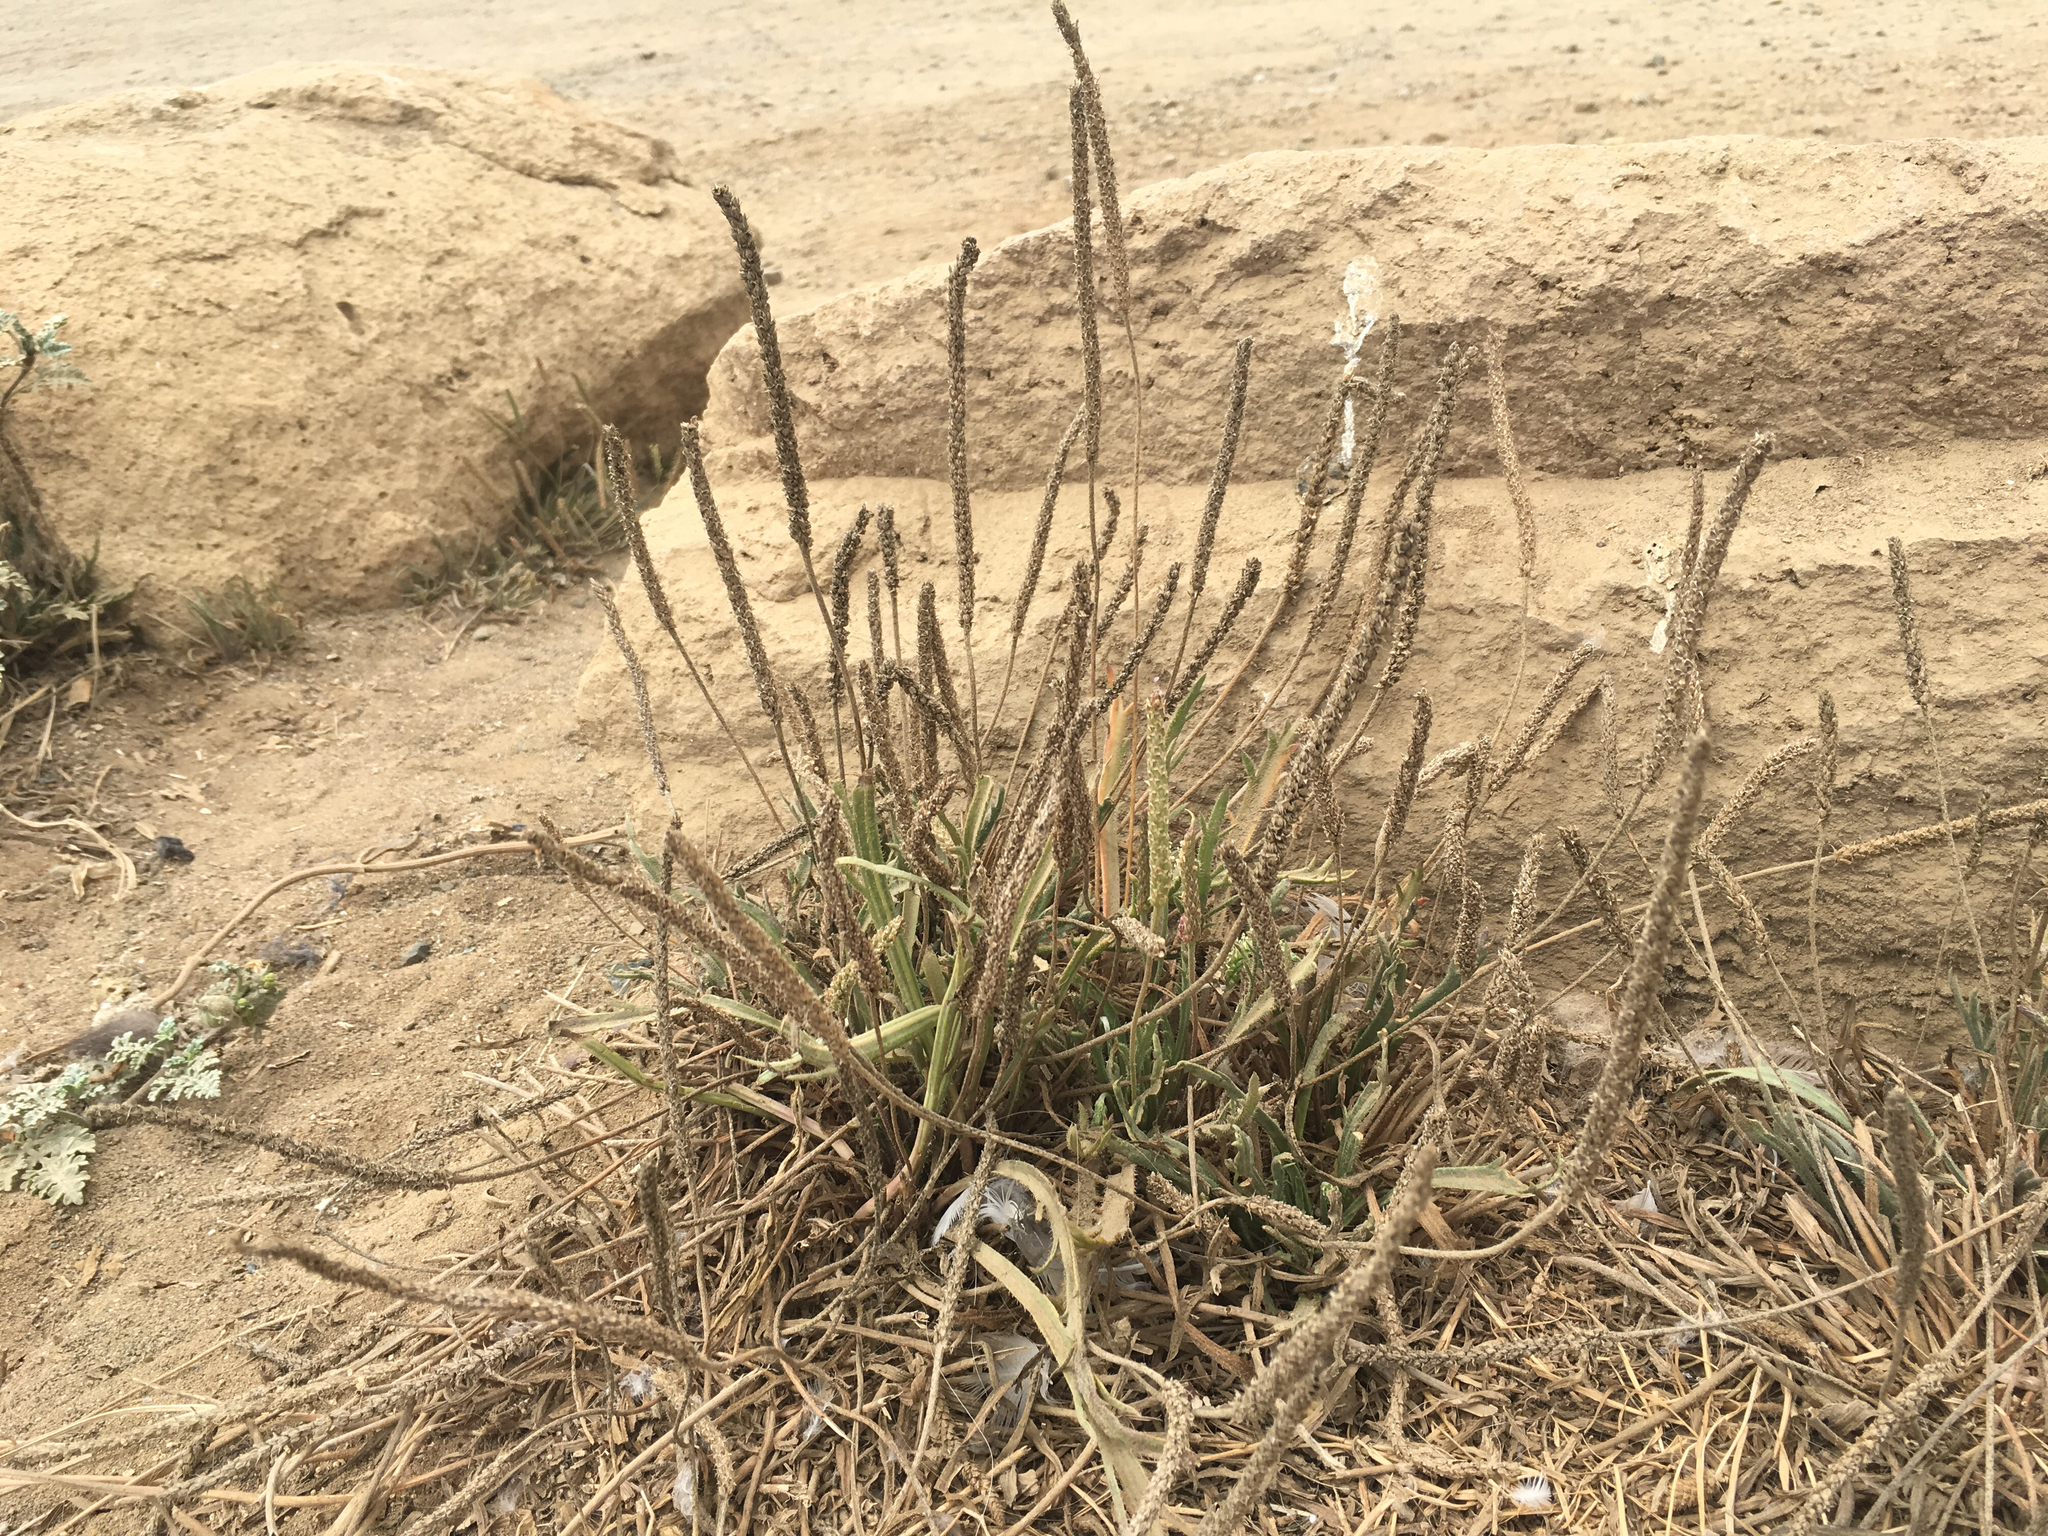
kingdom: Plantae
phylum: Tracheophyta
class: Magnoliopsida
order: Lamiales
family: Plantaginaceae
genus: Plantago
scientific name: Plantago coronopus
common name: Buck's-horn plantain
